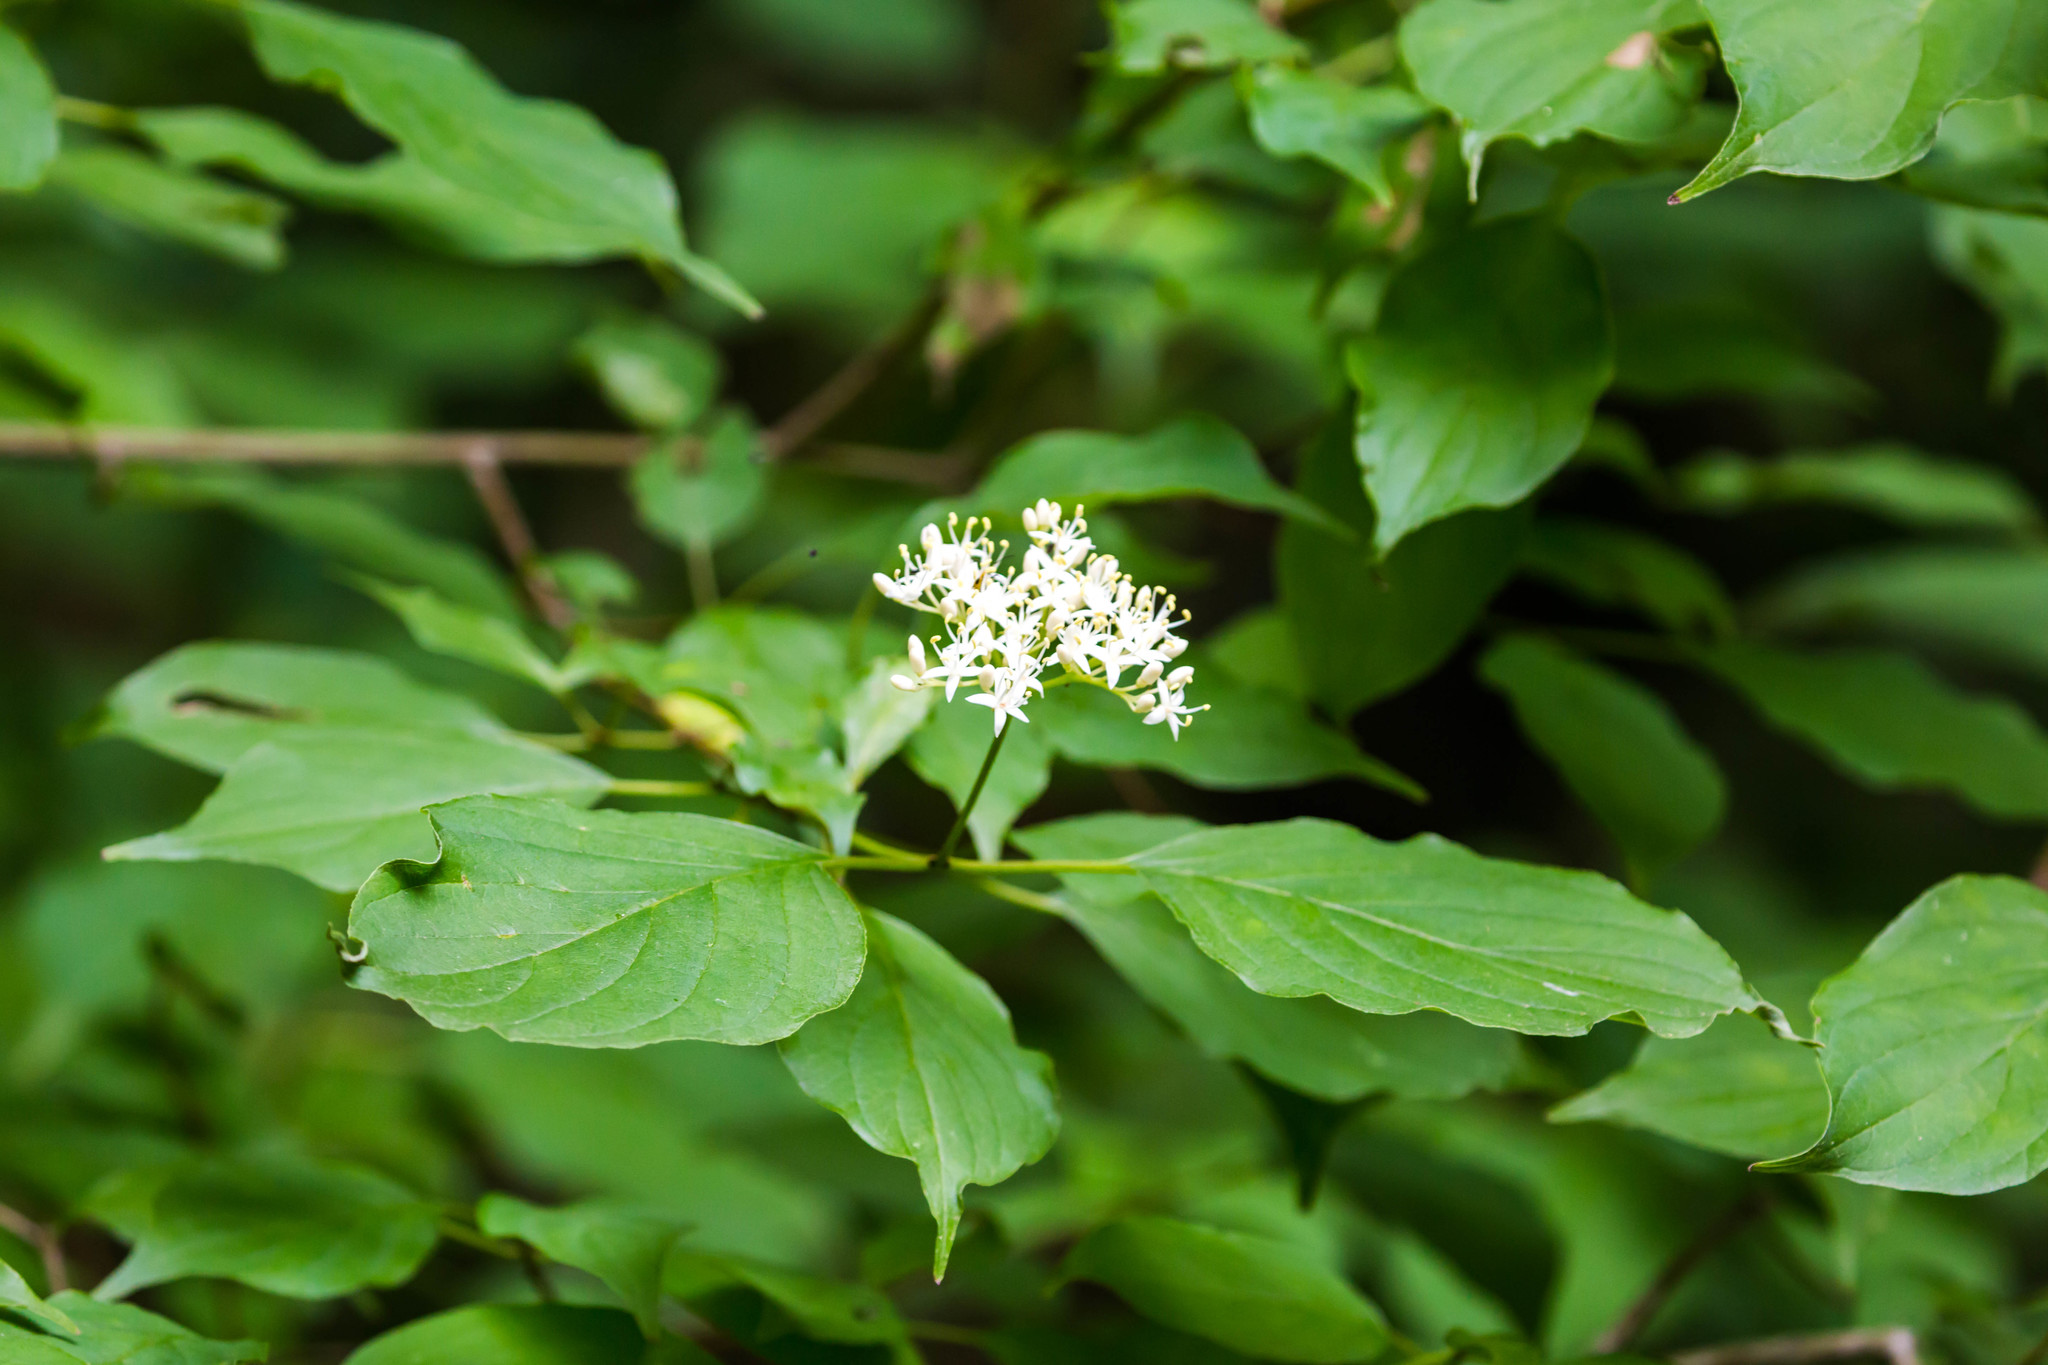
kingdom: Plantae
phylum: Tracheophyta
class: Magnoliopsida
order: Cornales
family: Cornaceae
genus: Cornus
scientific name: Cornus sanguinea
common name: Dogwood
